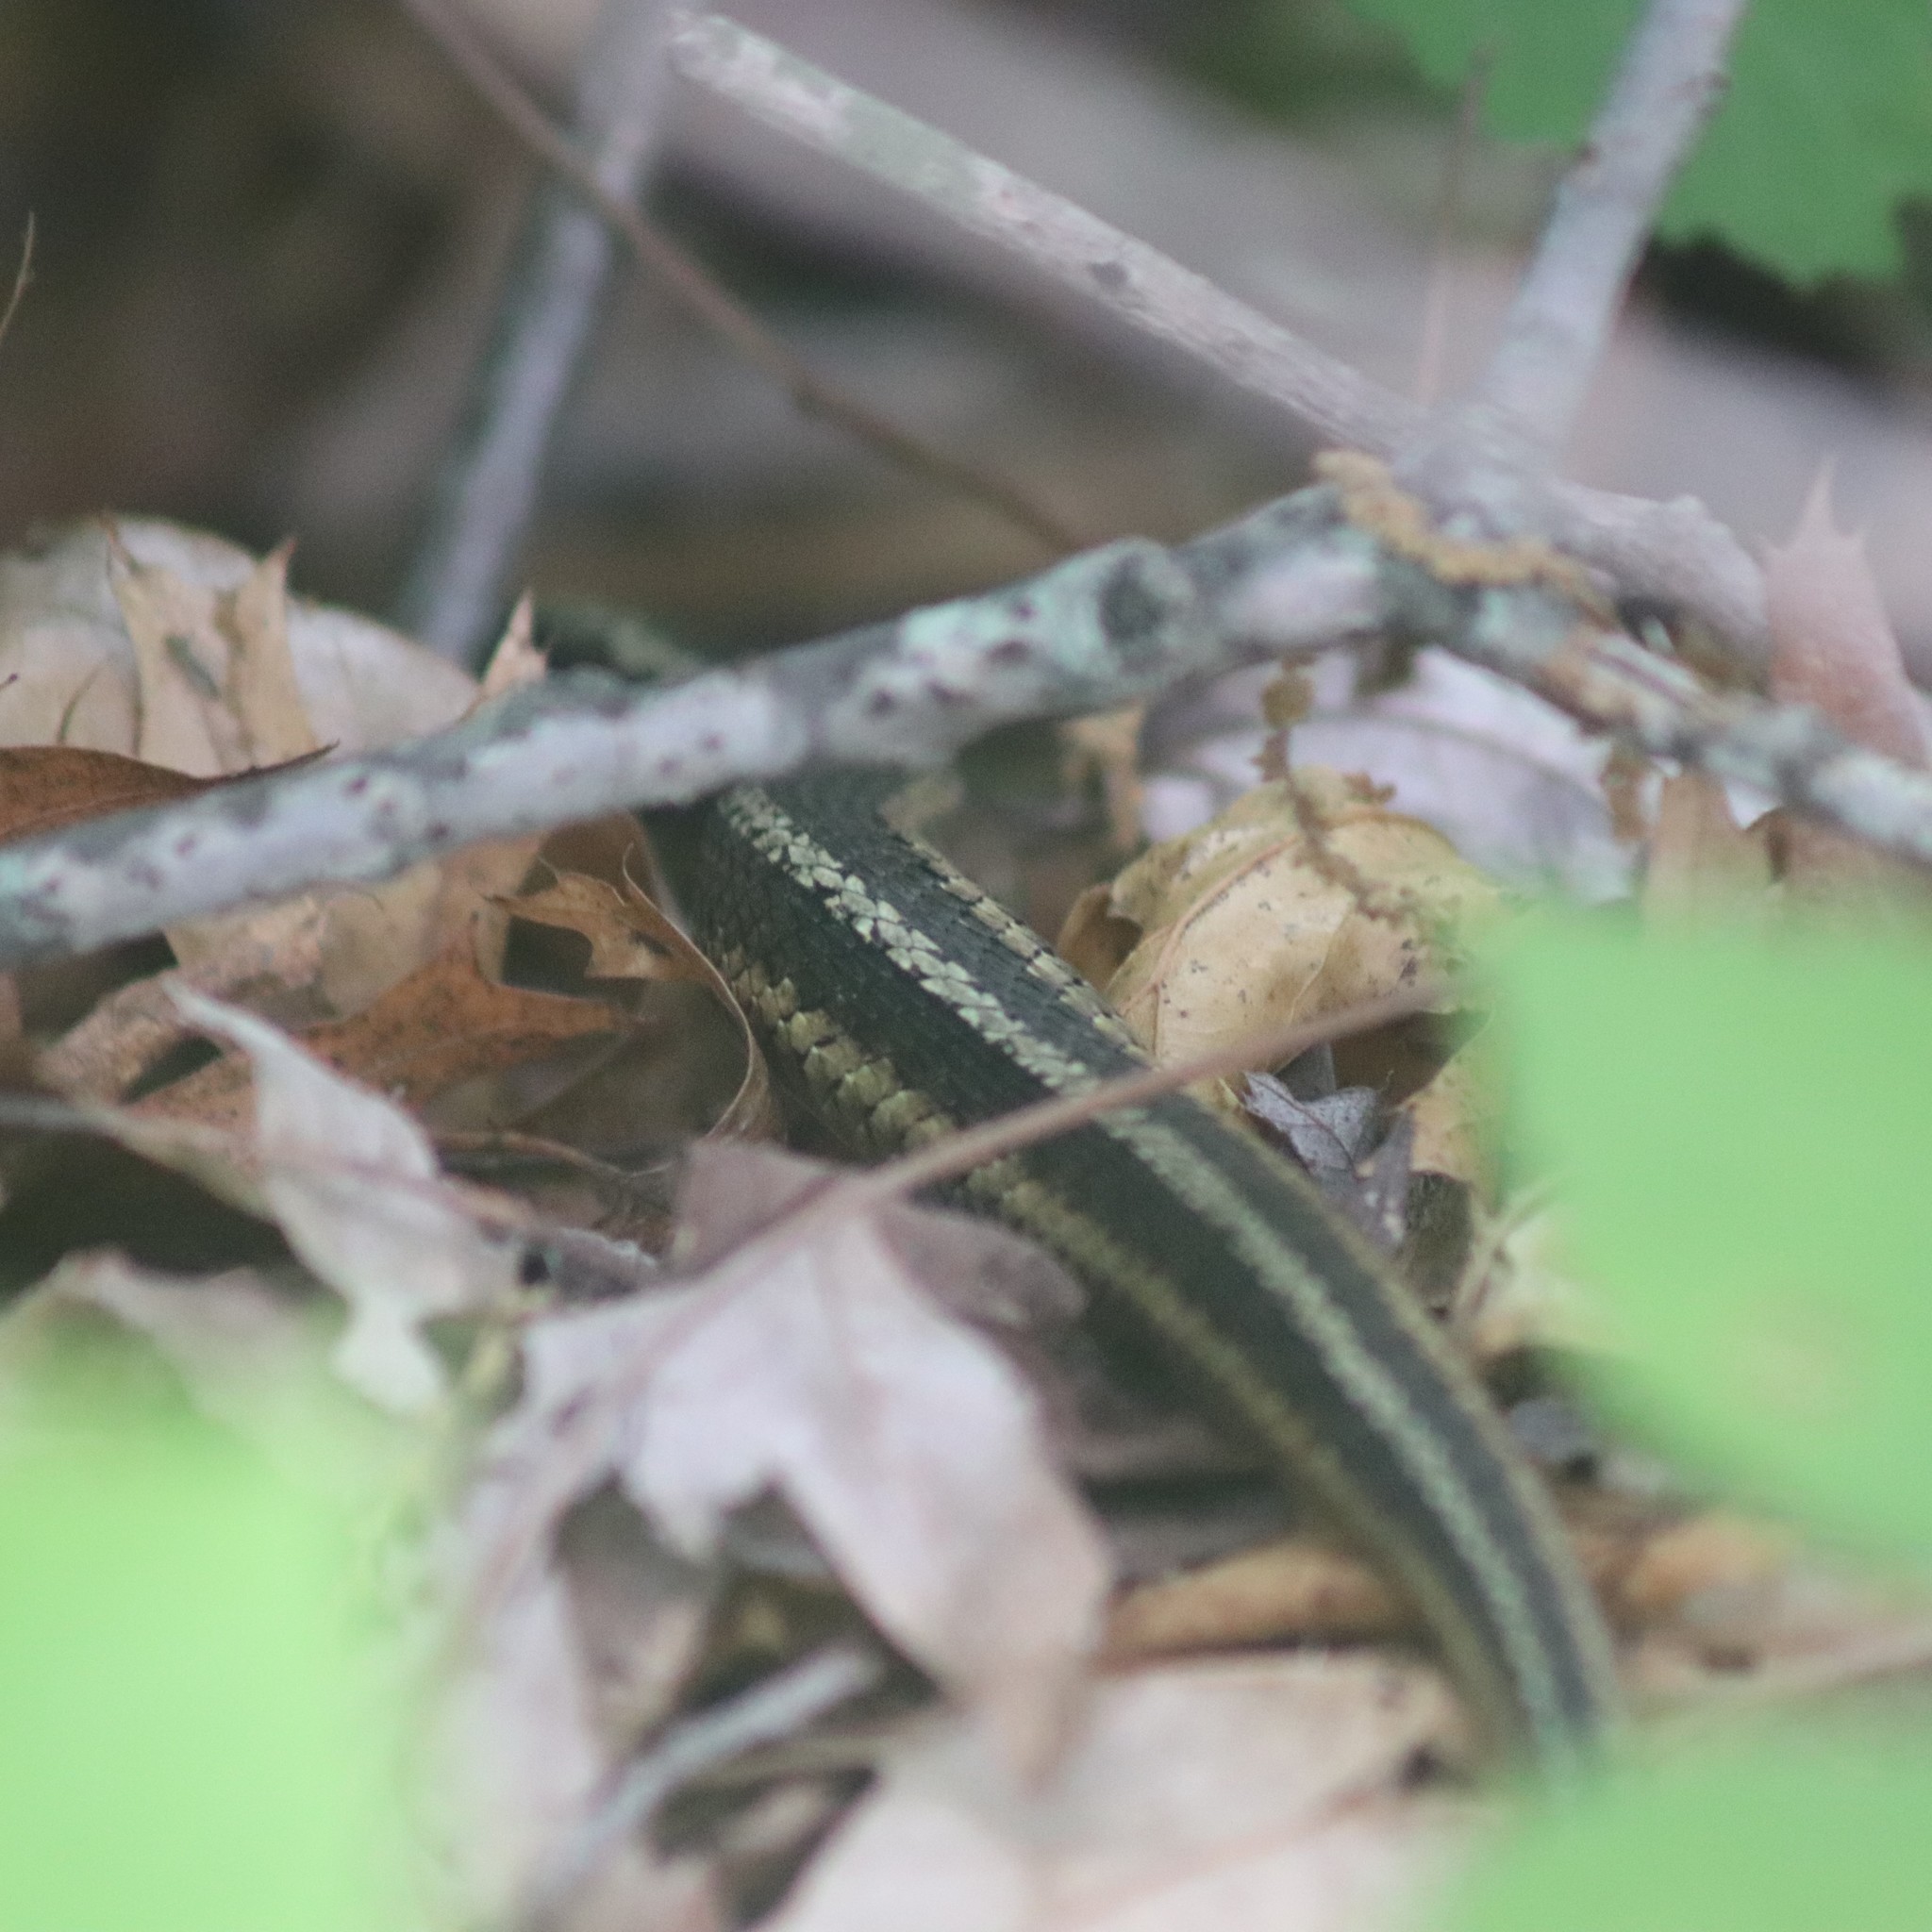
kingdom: Animalia
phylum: Chordata
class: Squamata
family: Colubridae
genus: Thamnophis
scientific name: Thamnophis sirtalis
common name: Common garter snake
